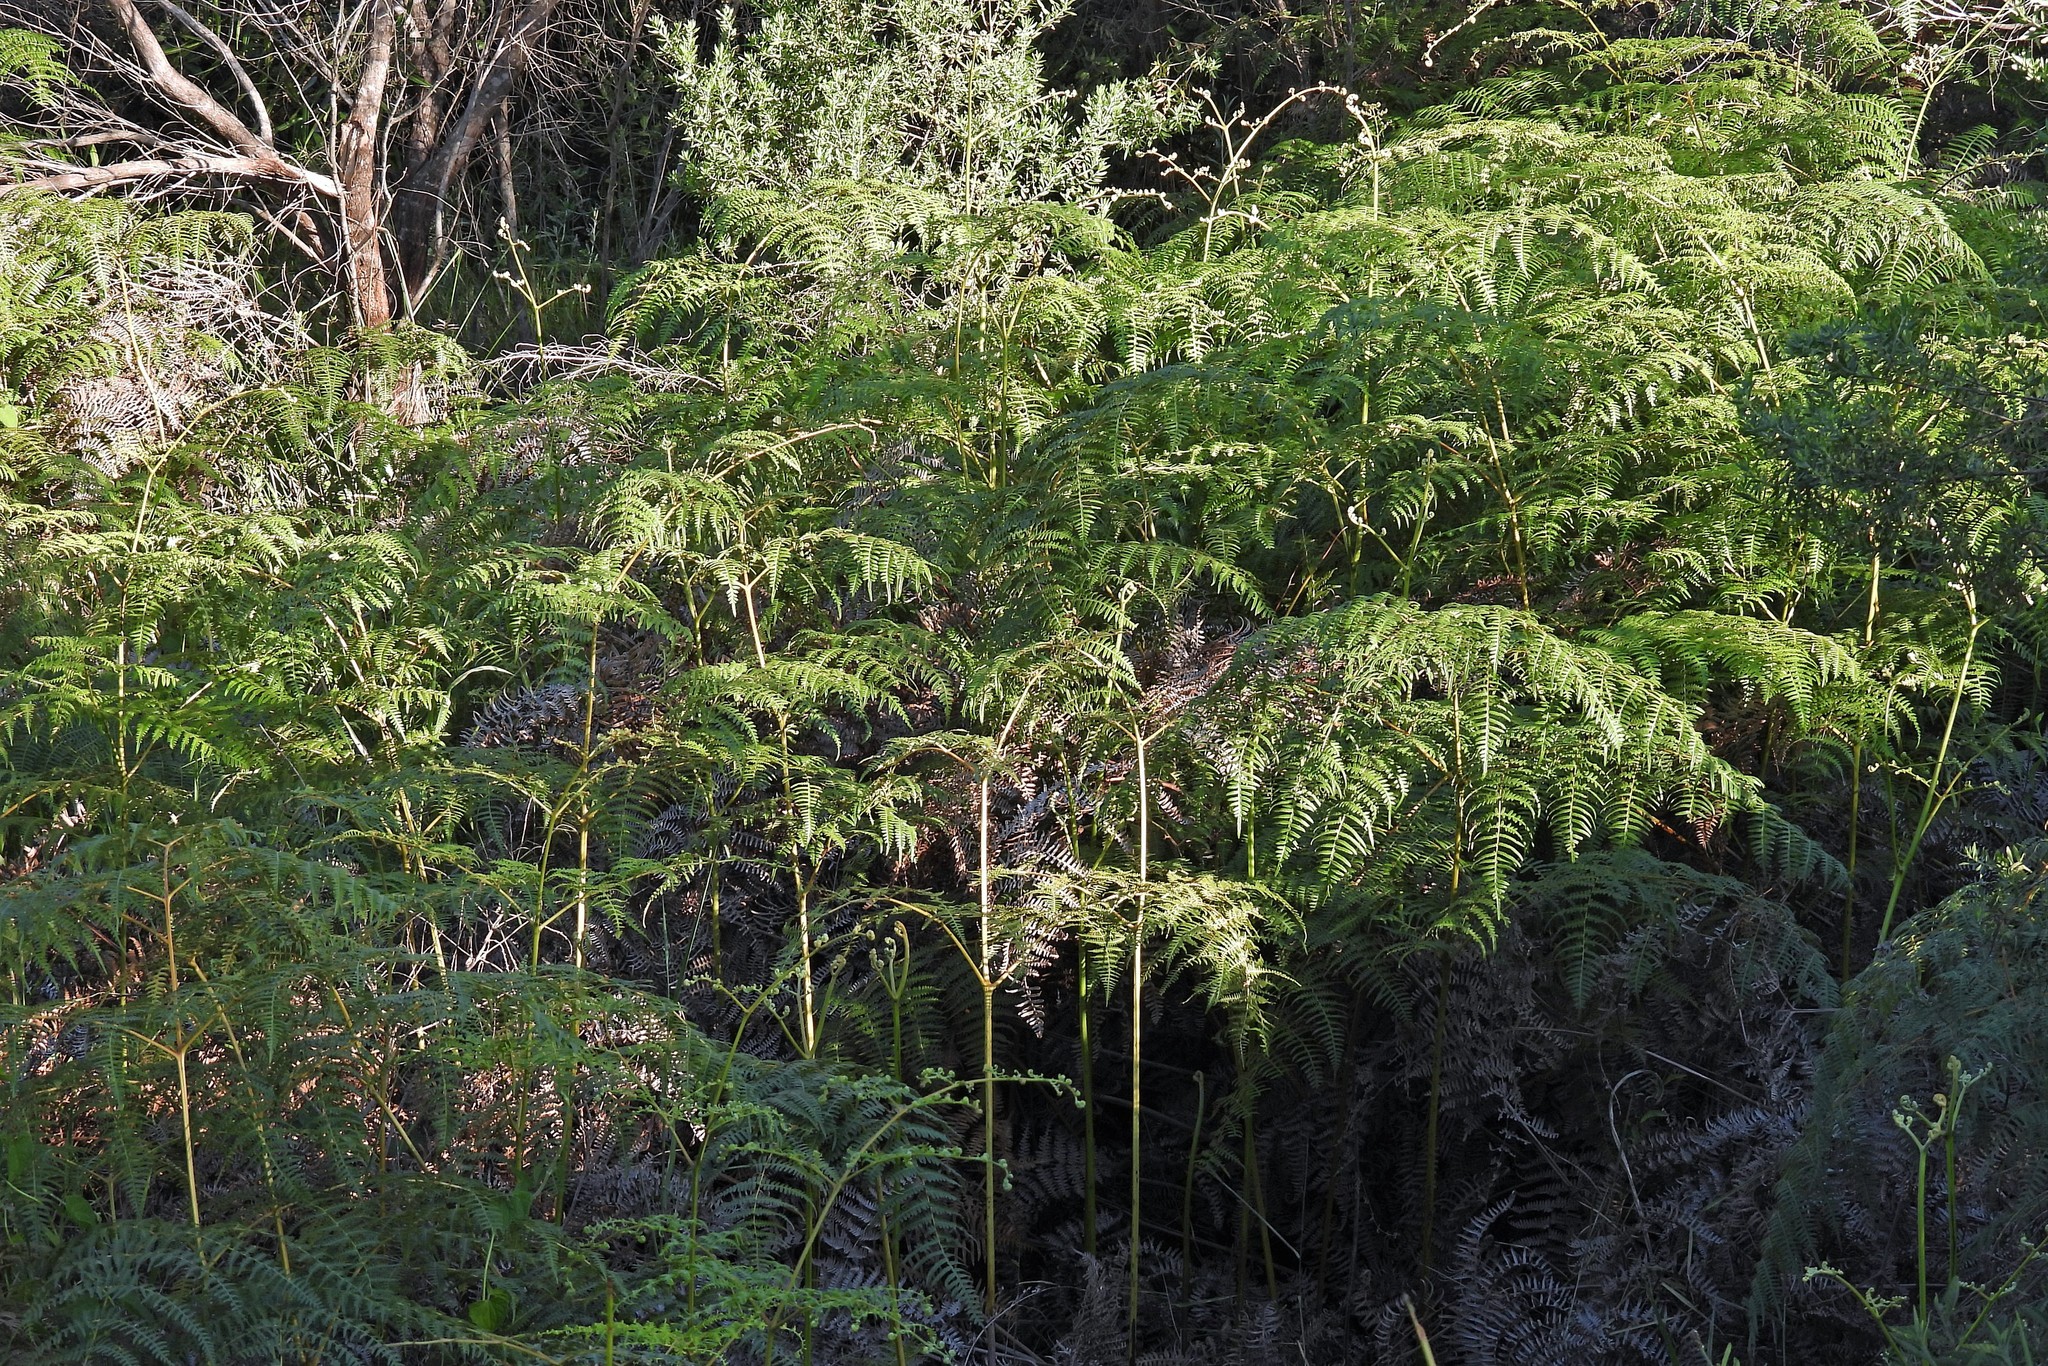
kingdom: Plantae
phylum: Tracheophyta
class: Polypodiopsida
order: Polypodiales
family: Dennstaedtiaceae
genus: Pteridium
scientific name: Pteridium esculentum
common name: Bracken fern
